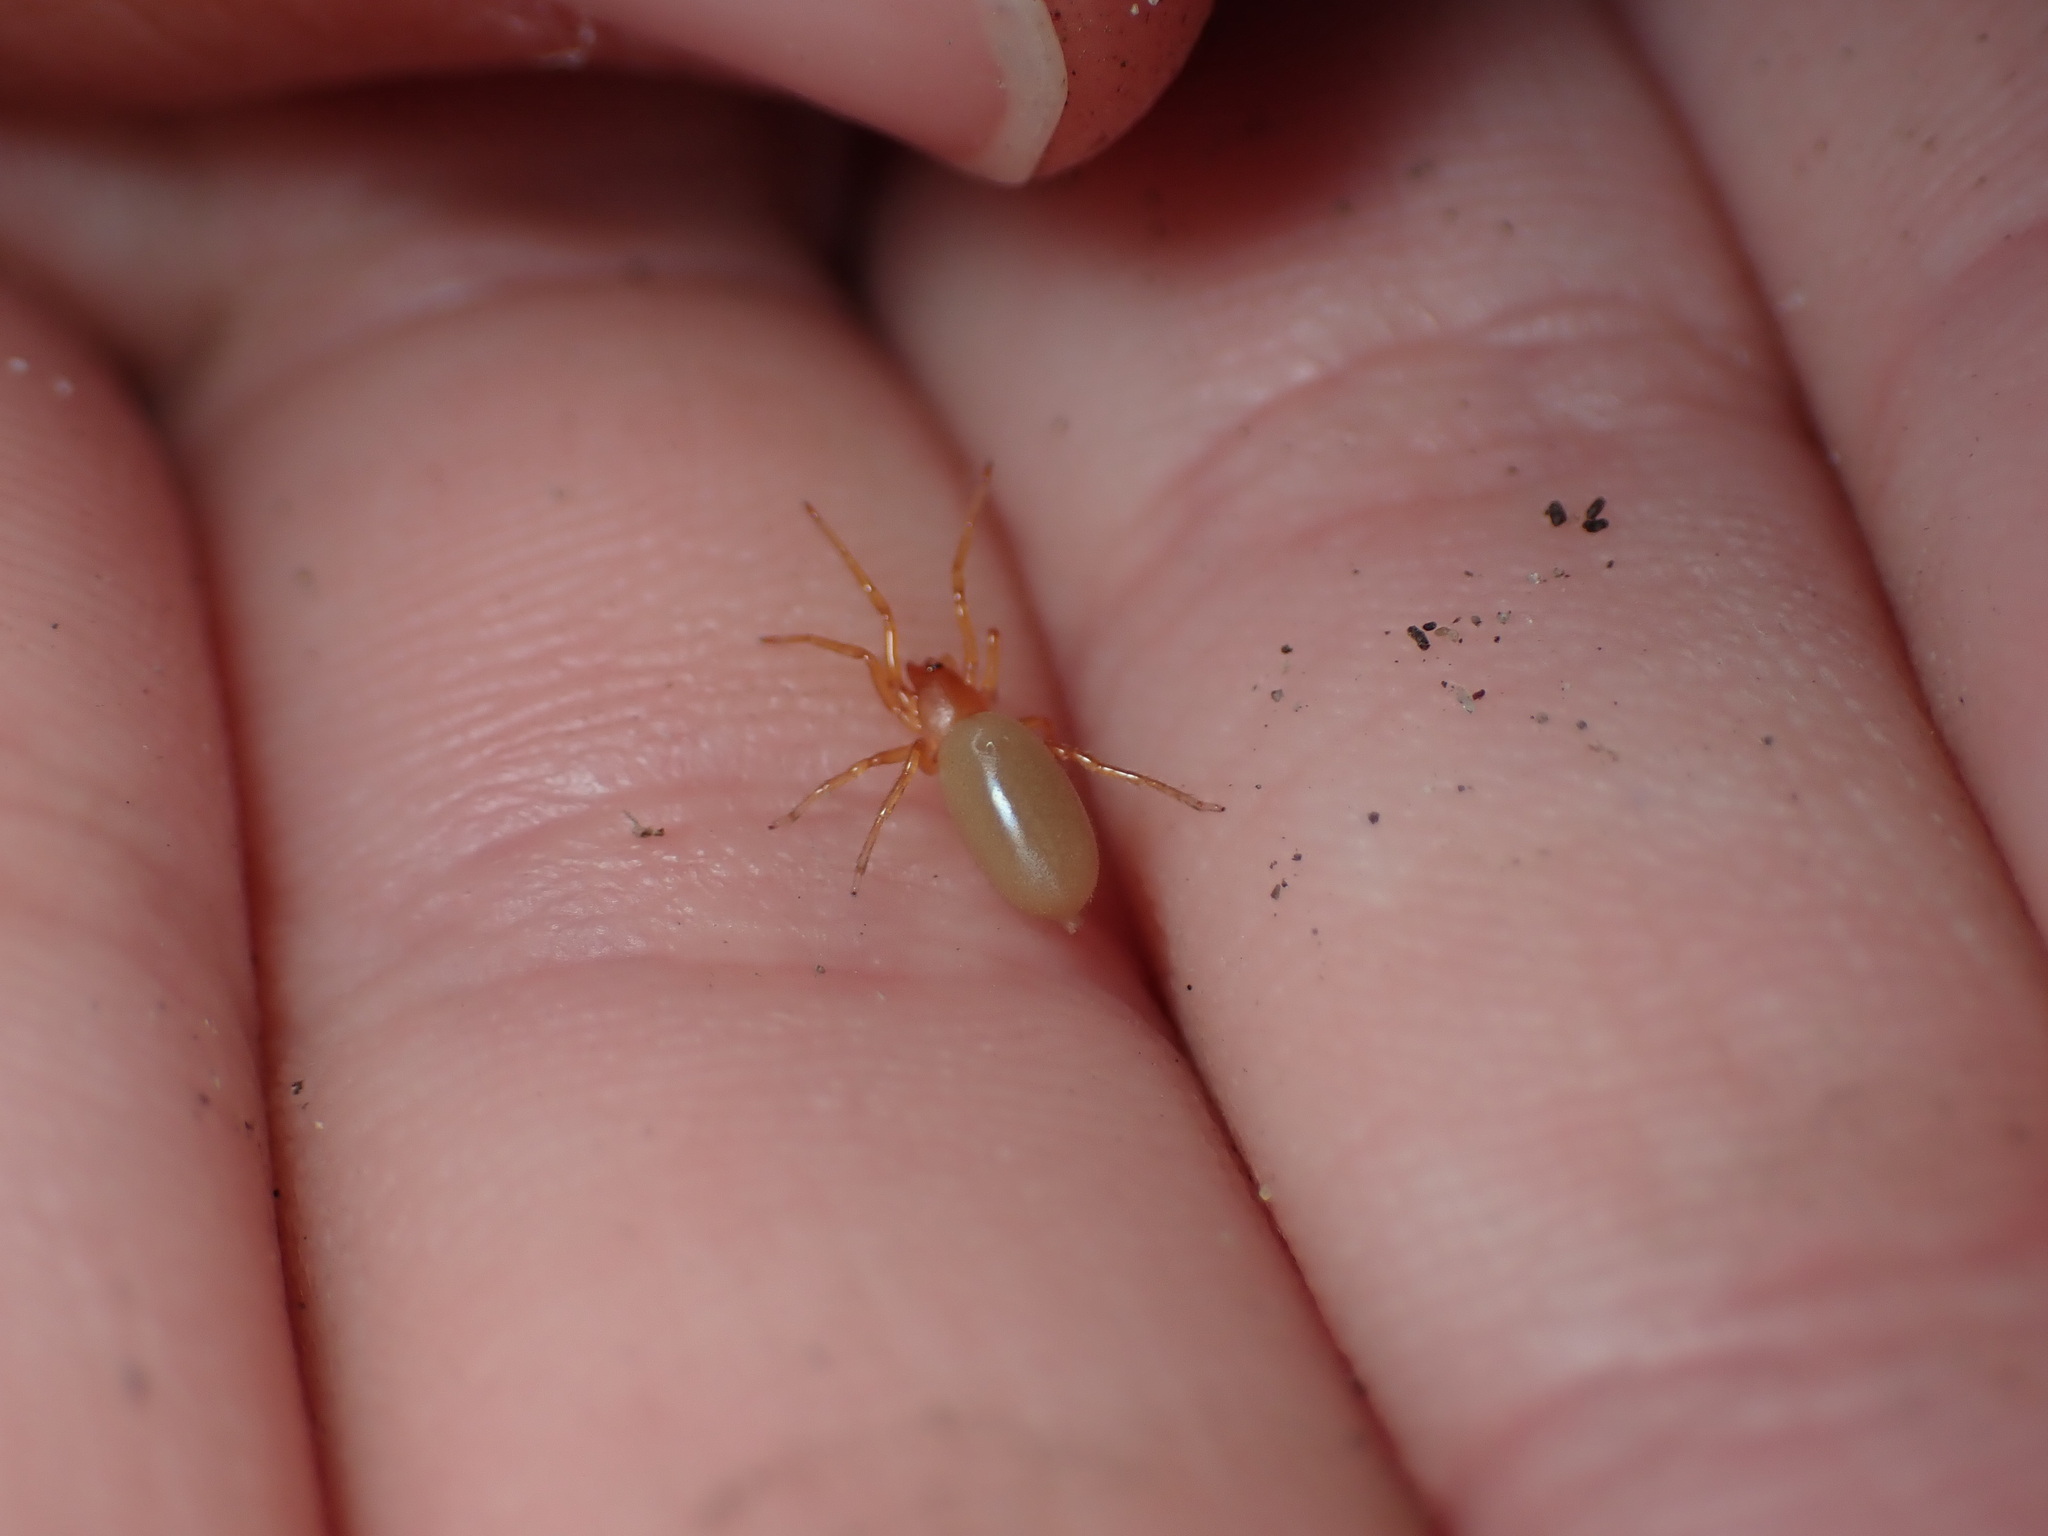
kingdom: Animalia
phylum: Arthropoda
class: Arachnida
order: Araneae
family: Dysderidae
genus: Dysdera
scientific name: Dysdera crocata
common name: Woodlouse spider
